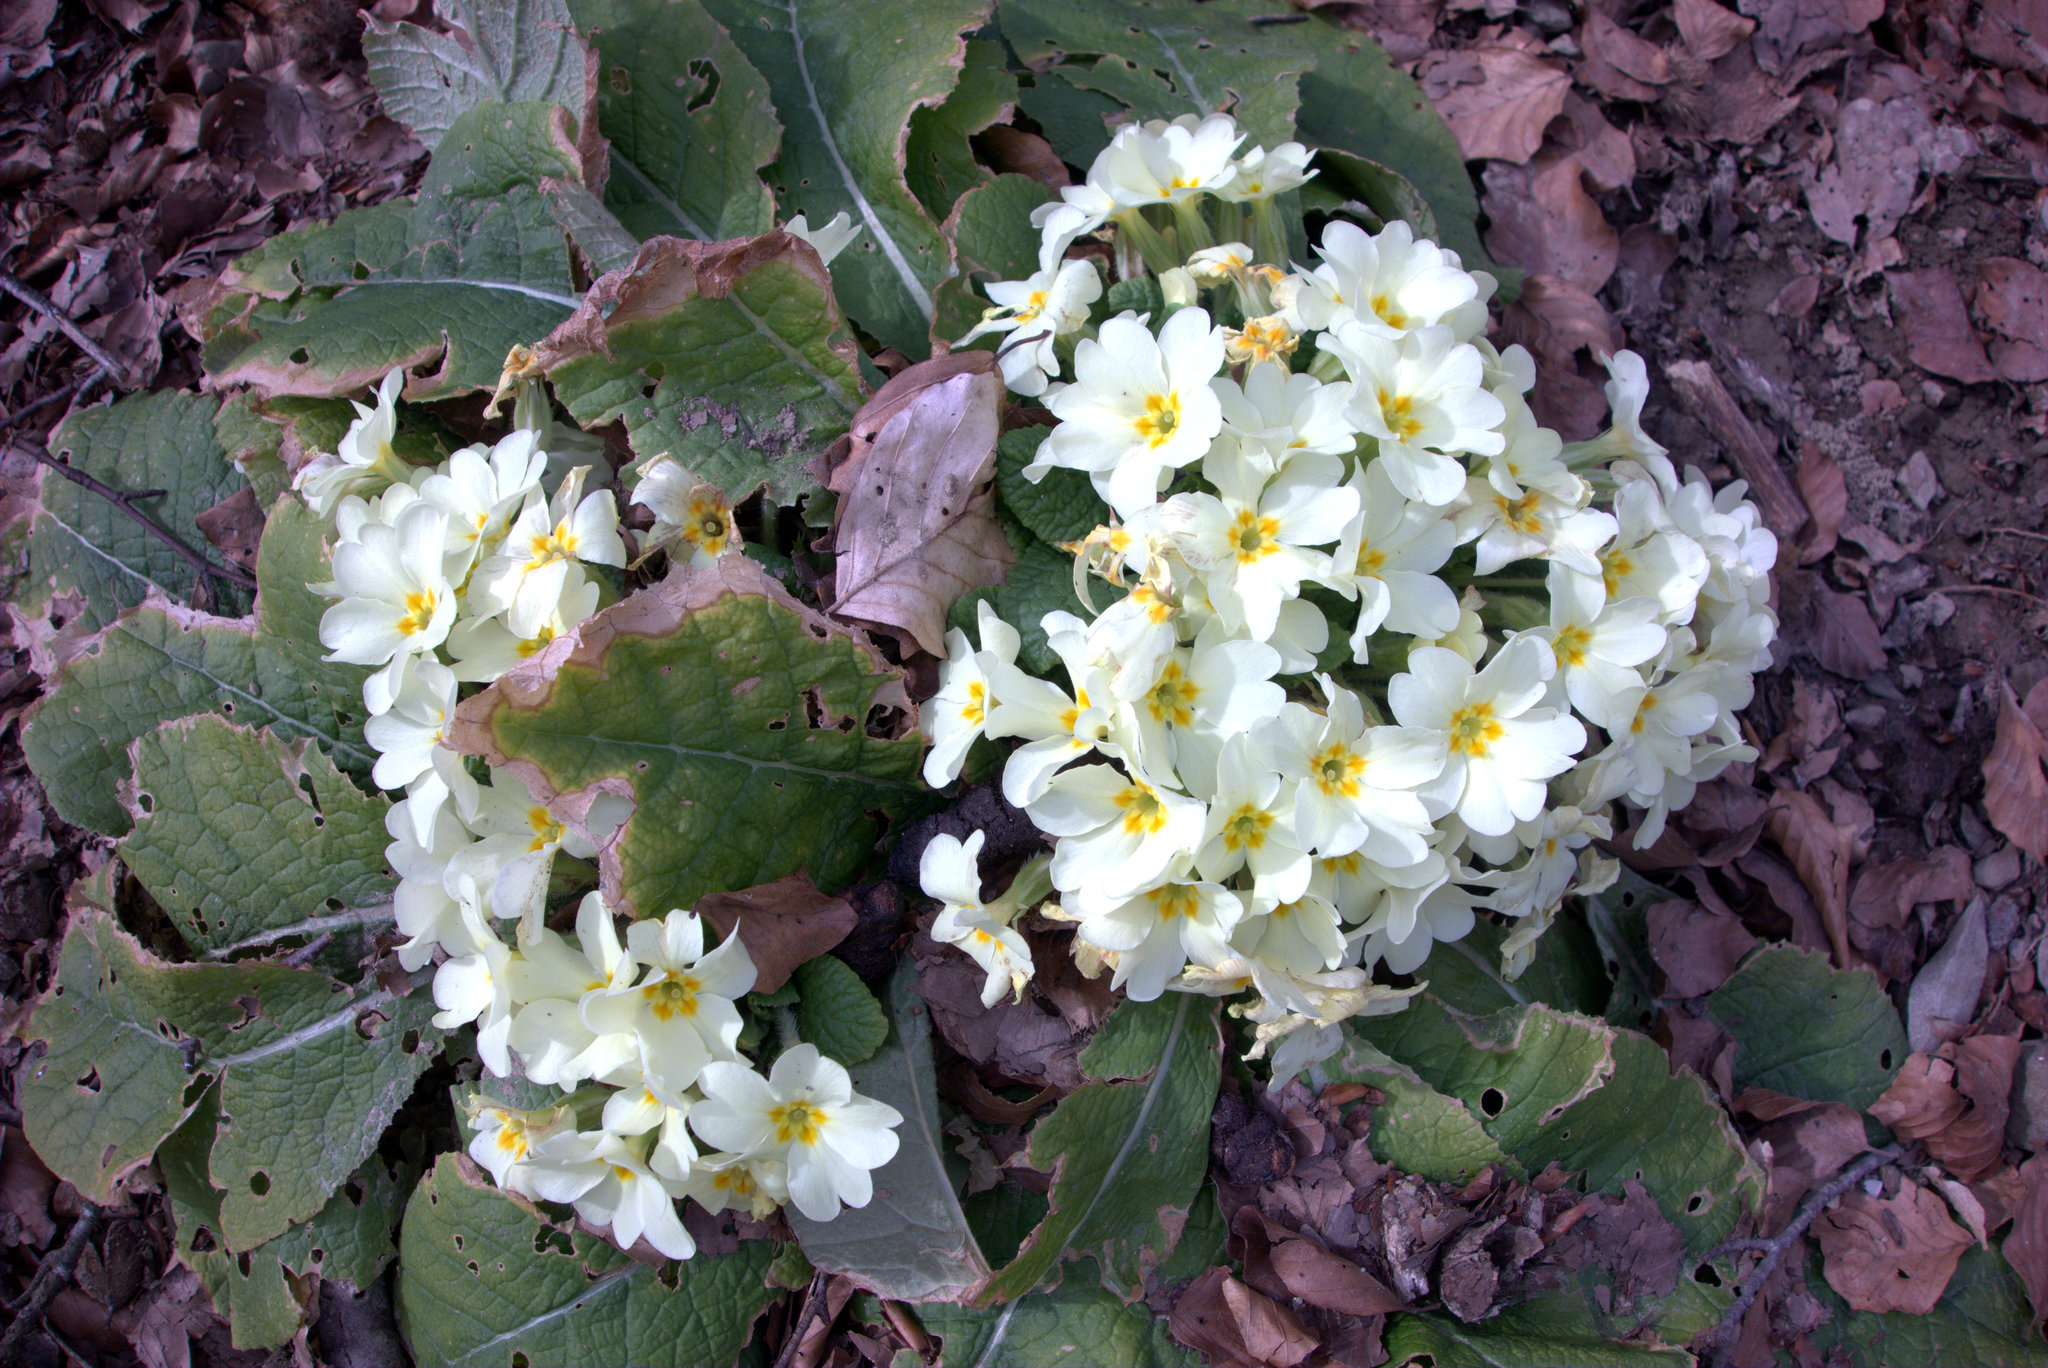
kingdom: Plantae
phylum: Tracheophyta
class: Magnoliopsida
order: Ericales
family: Primulaceae
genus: Primula
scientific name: Primula vulgaris
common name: Primrose
